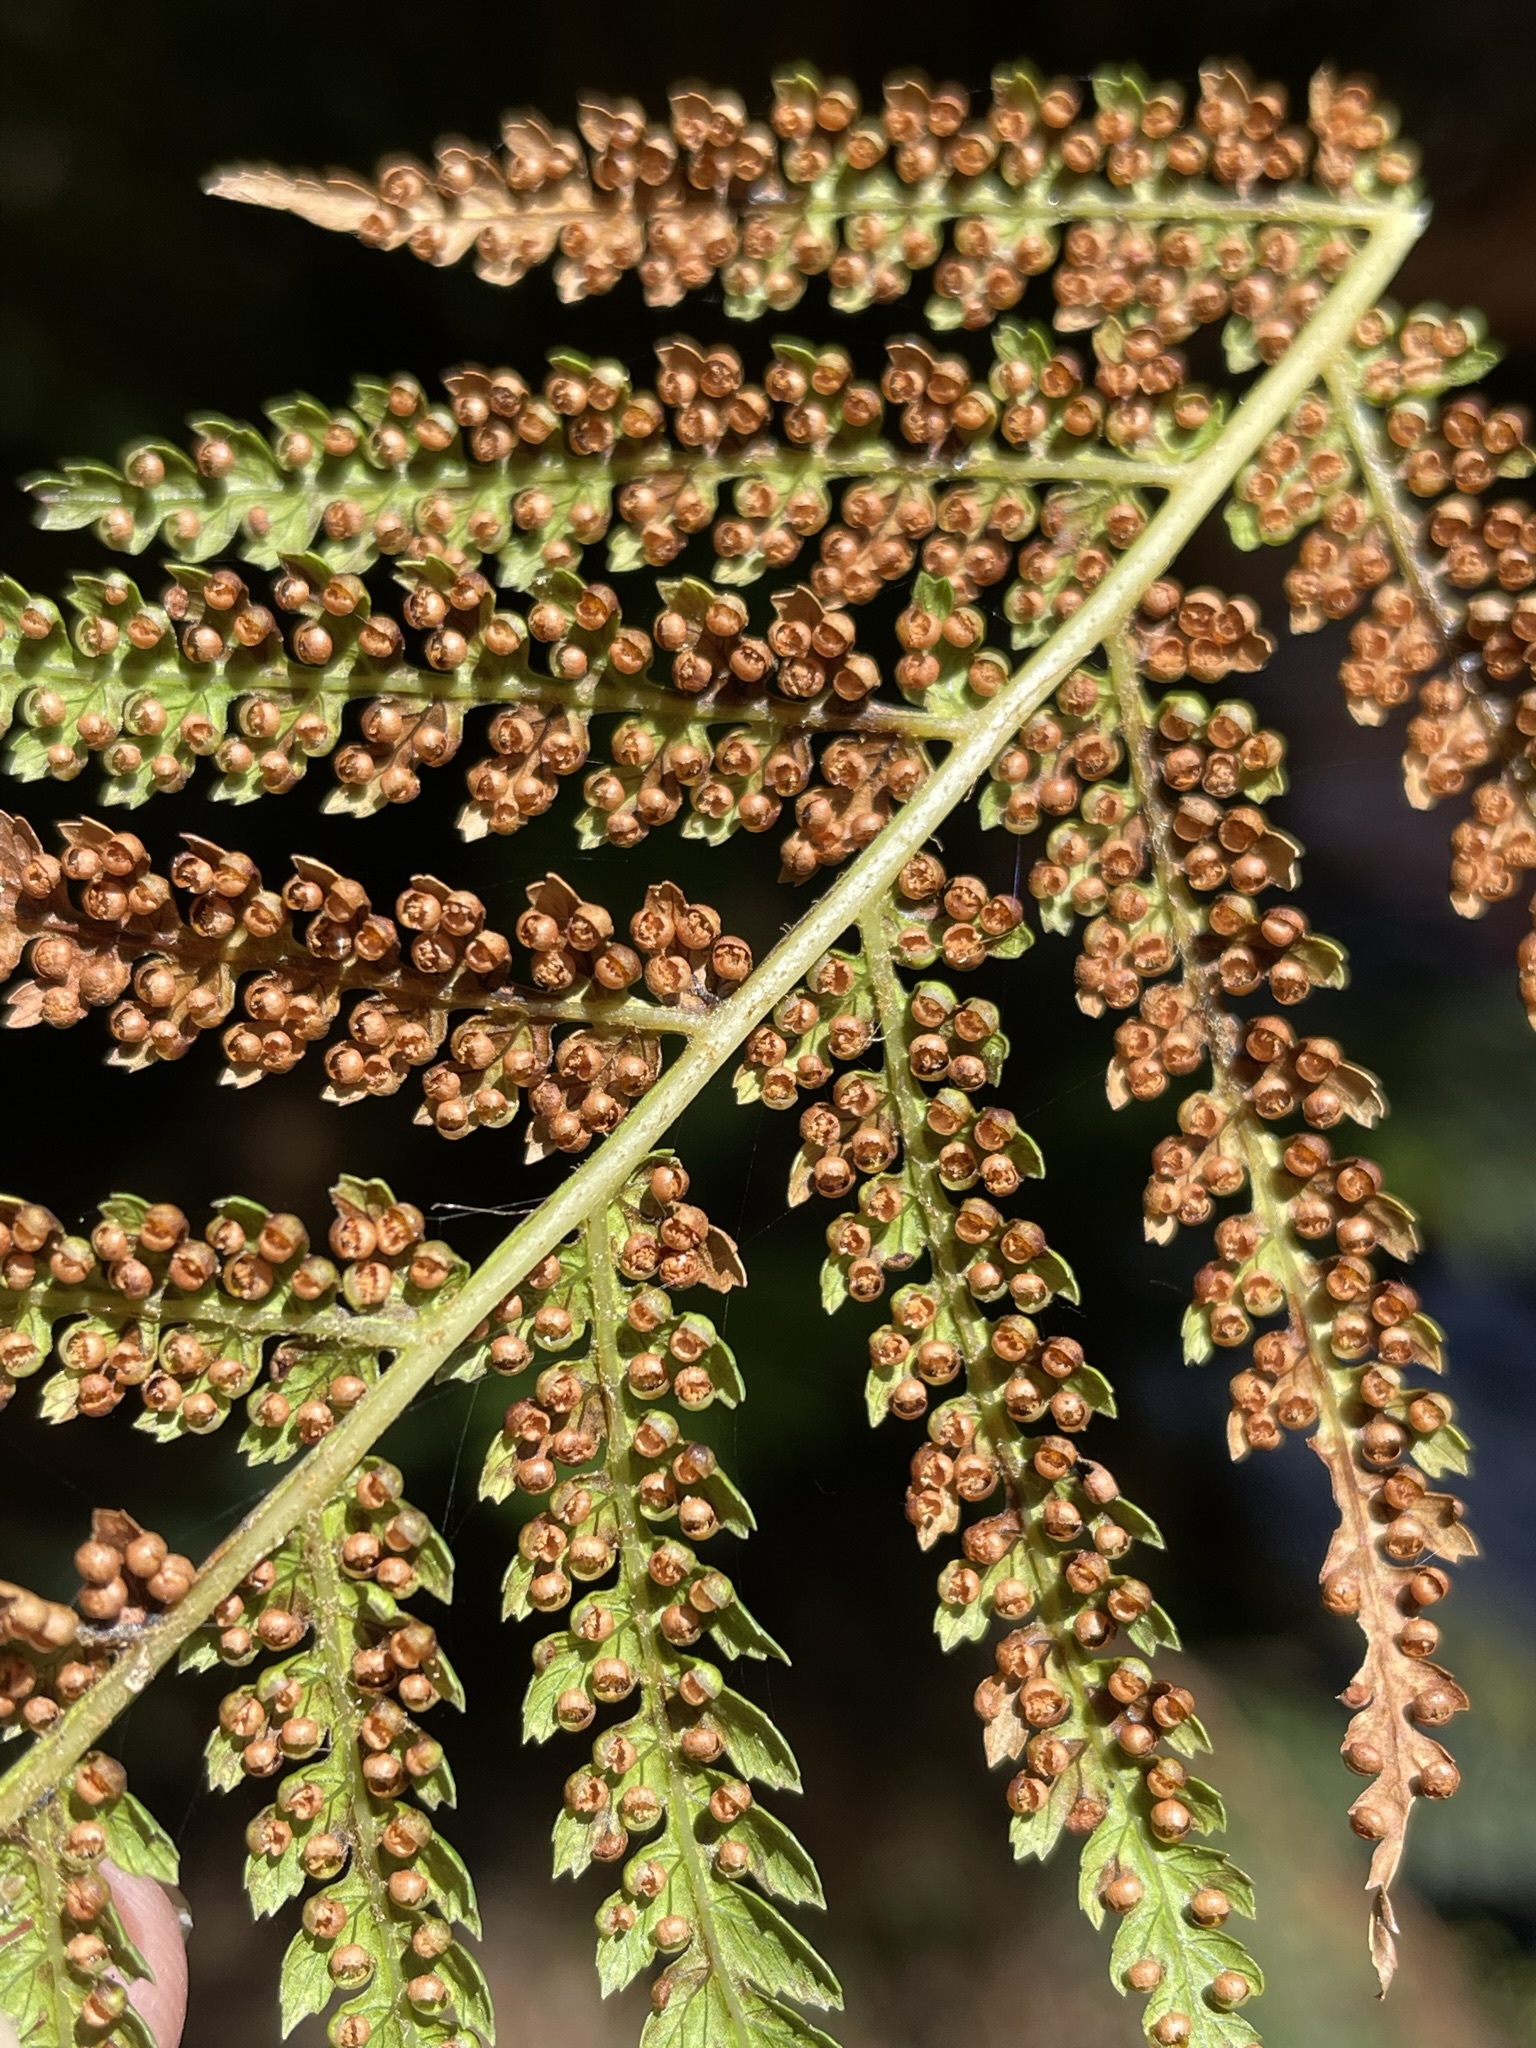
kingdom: Plantae
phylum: Tracheophyta
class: Polypodiopsida
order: Cyatheales
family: Dicksoniaceae
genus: Dicksonia
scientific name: Dicksonia antarctica
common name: Australian treefern
